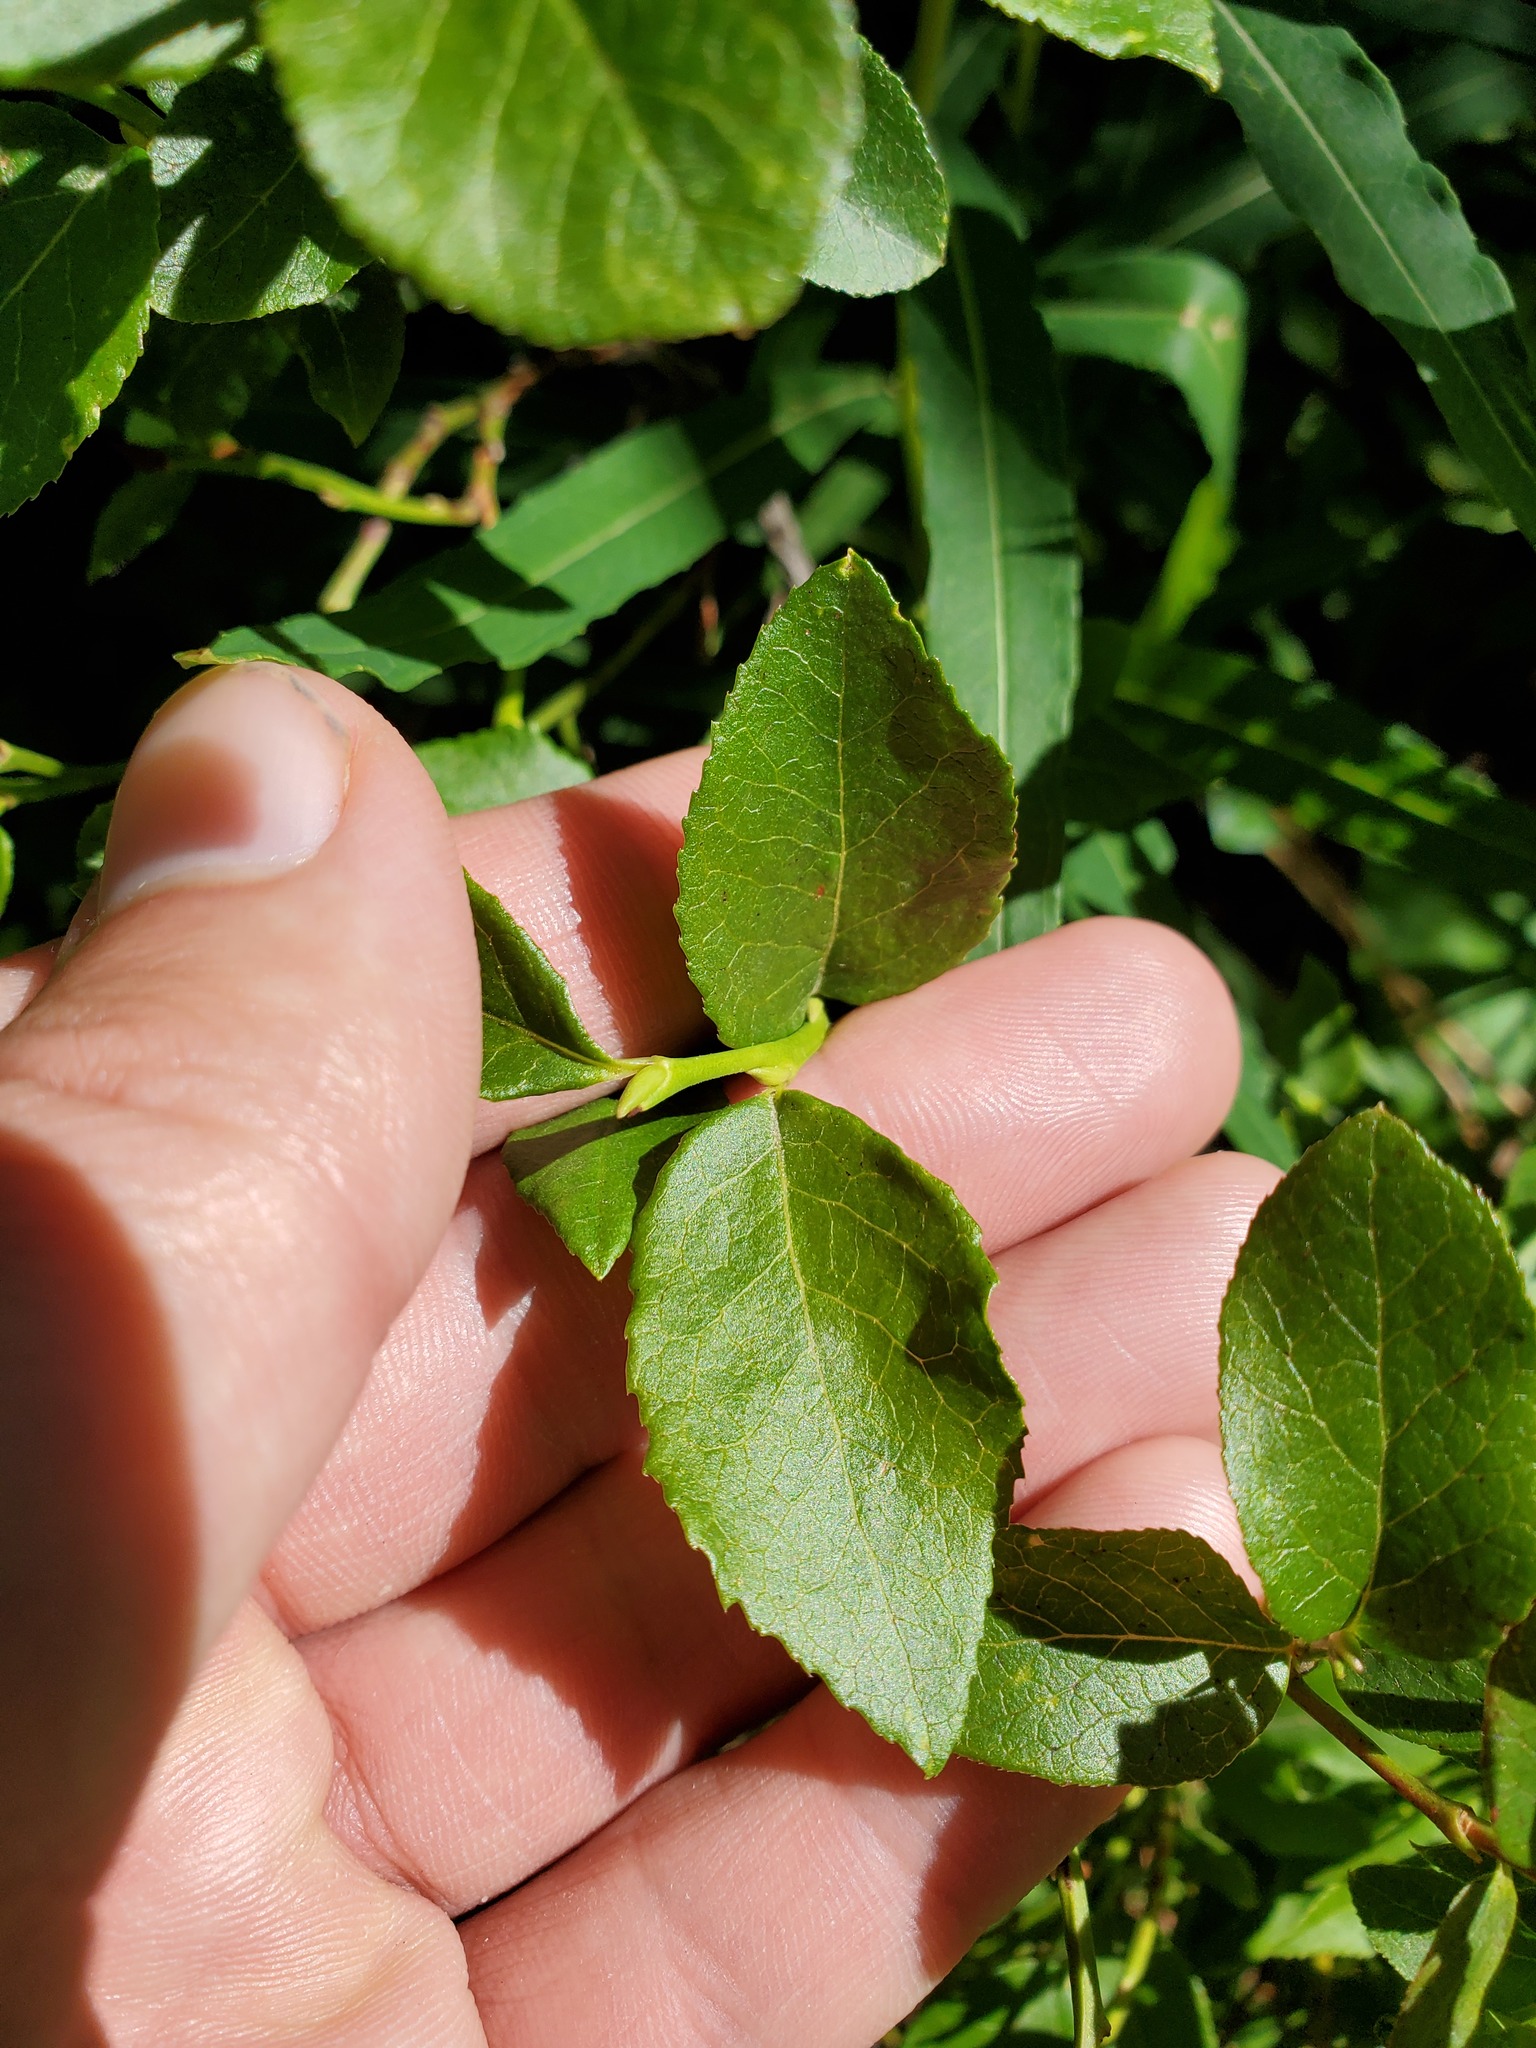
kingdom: Plantae
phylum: Tracheophyta
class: Magnoliopsida
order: Ericales
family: Ericaceae
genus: Vaccinium
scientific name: Vaccinium myrtillus
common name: Bilberry
